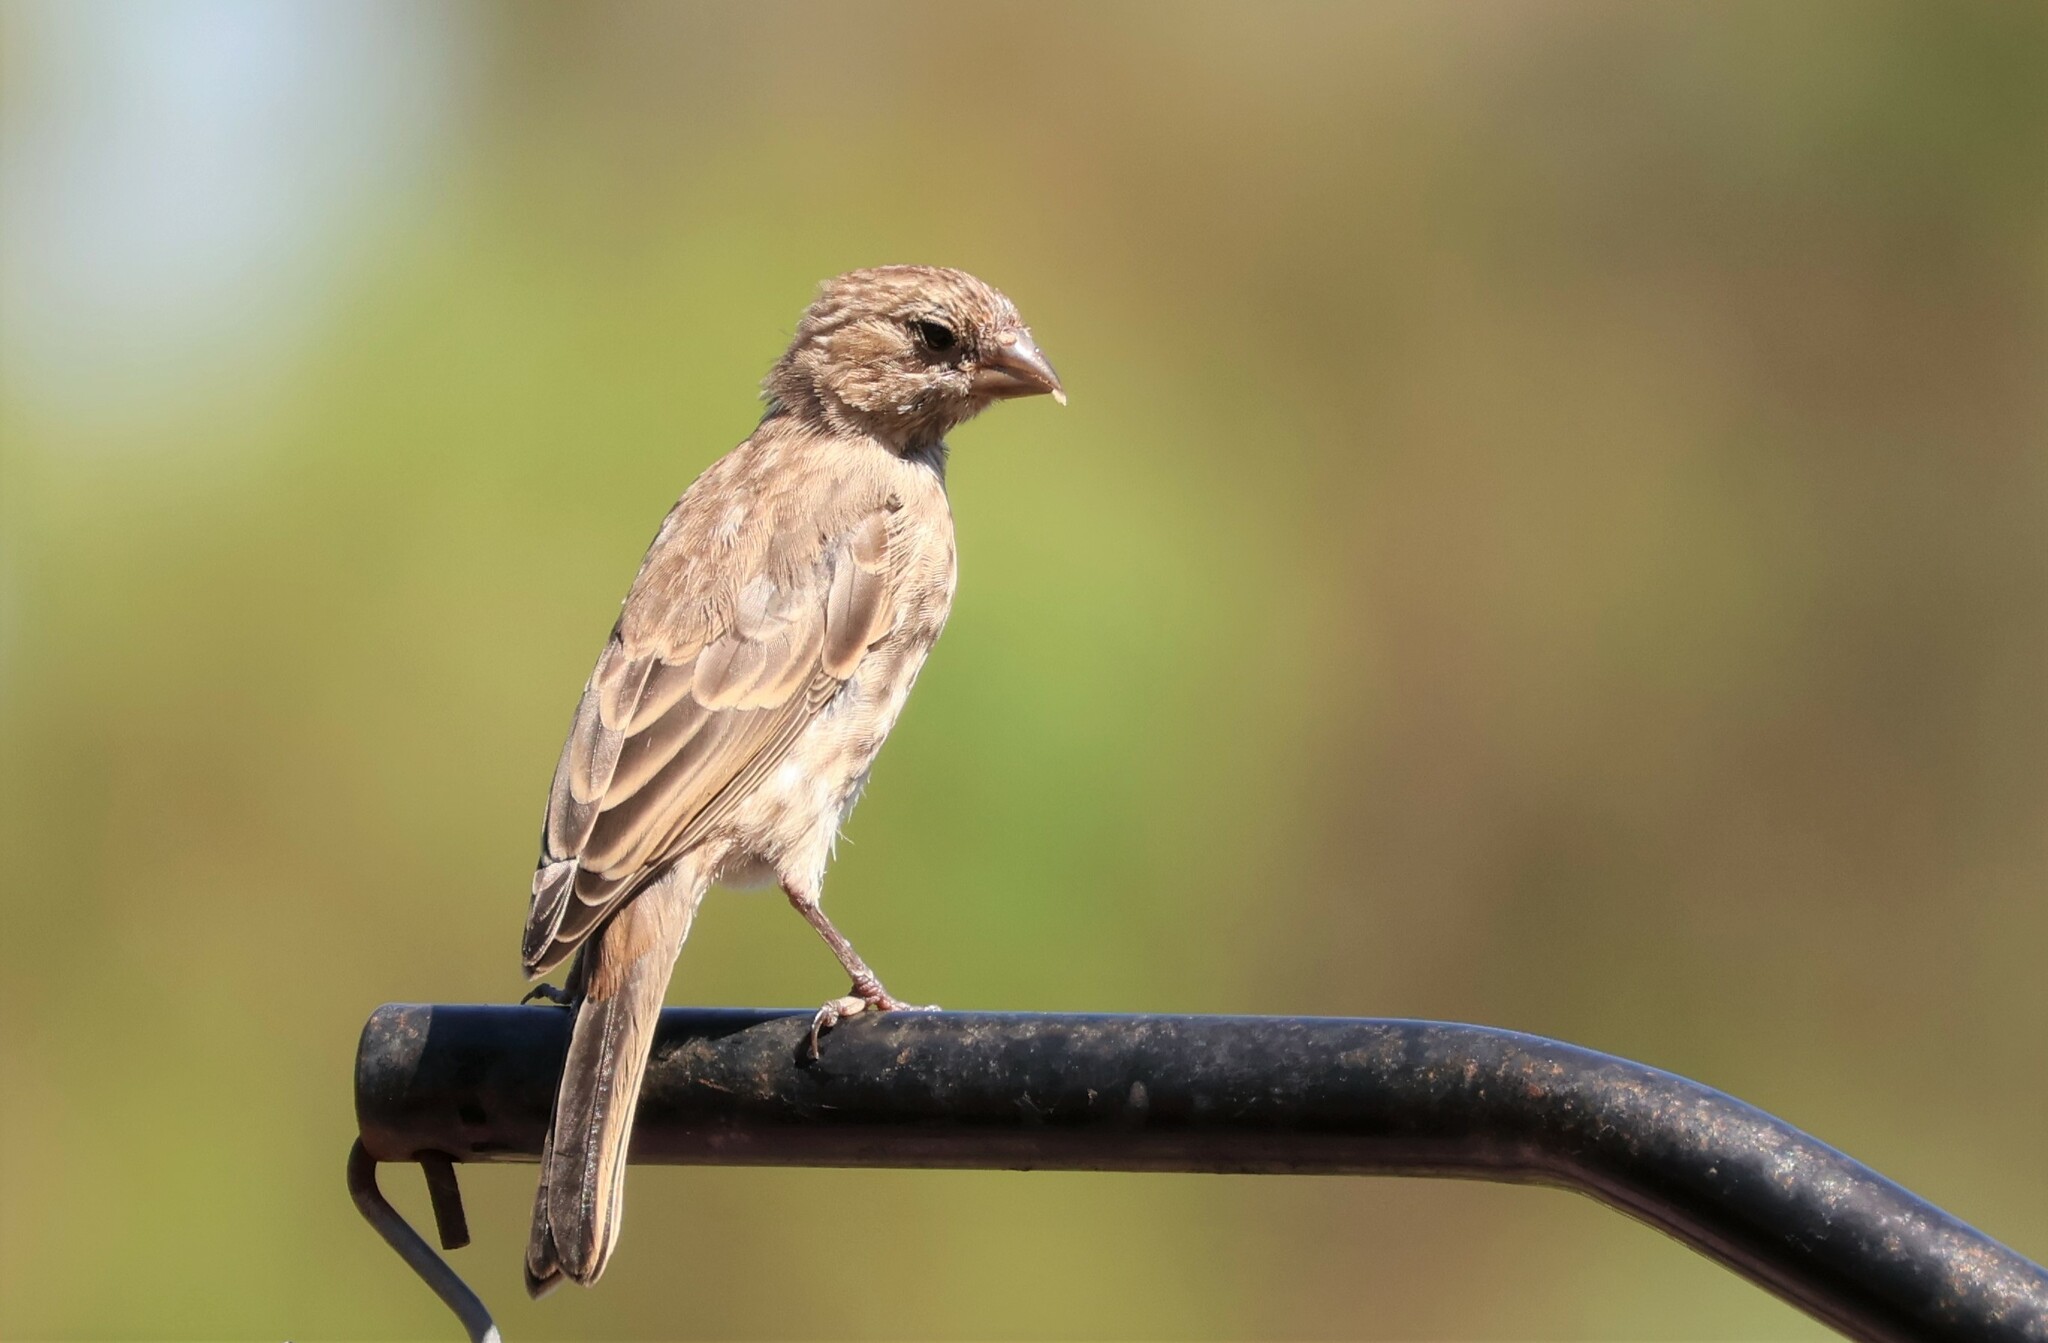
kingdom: Animalia
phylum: Chordata
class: Aves
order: Passeriformes
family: Fringillidae
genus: Haemorhous
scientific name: Haemorhous mexicanus
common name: House finch
